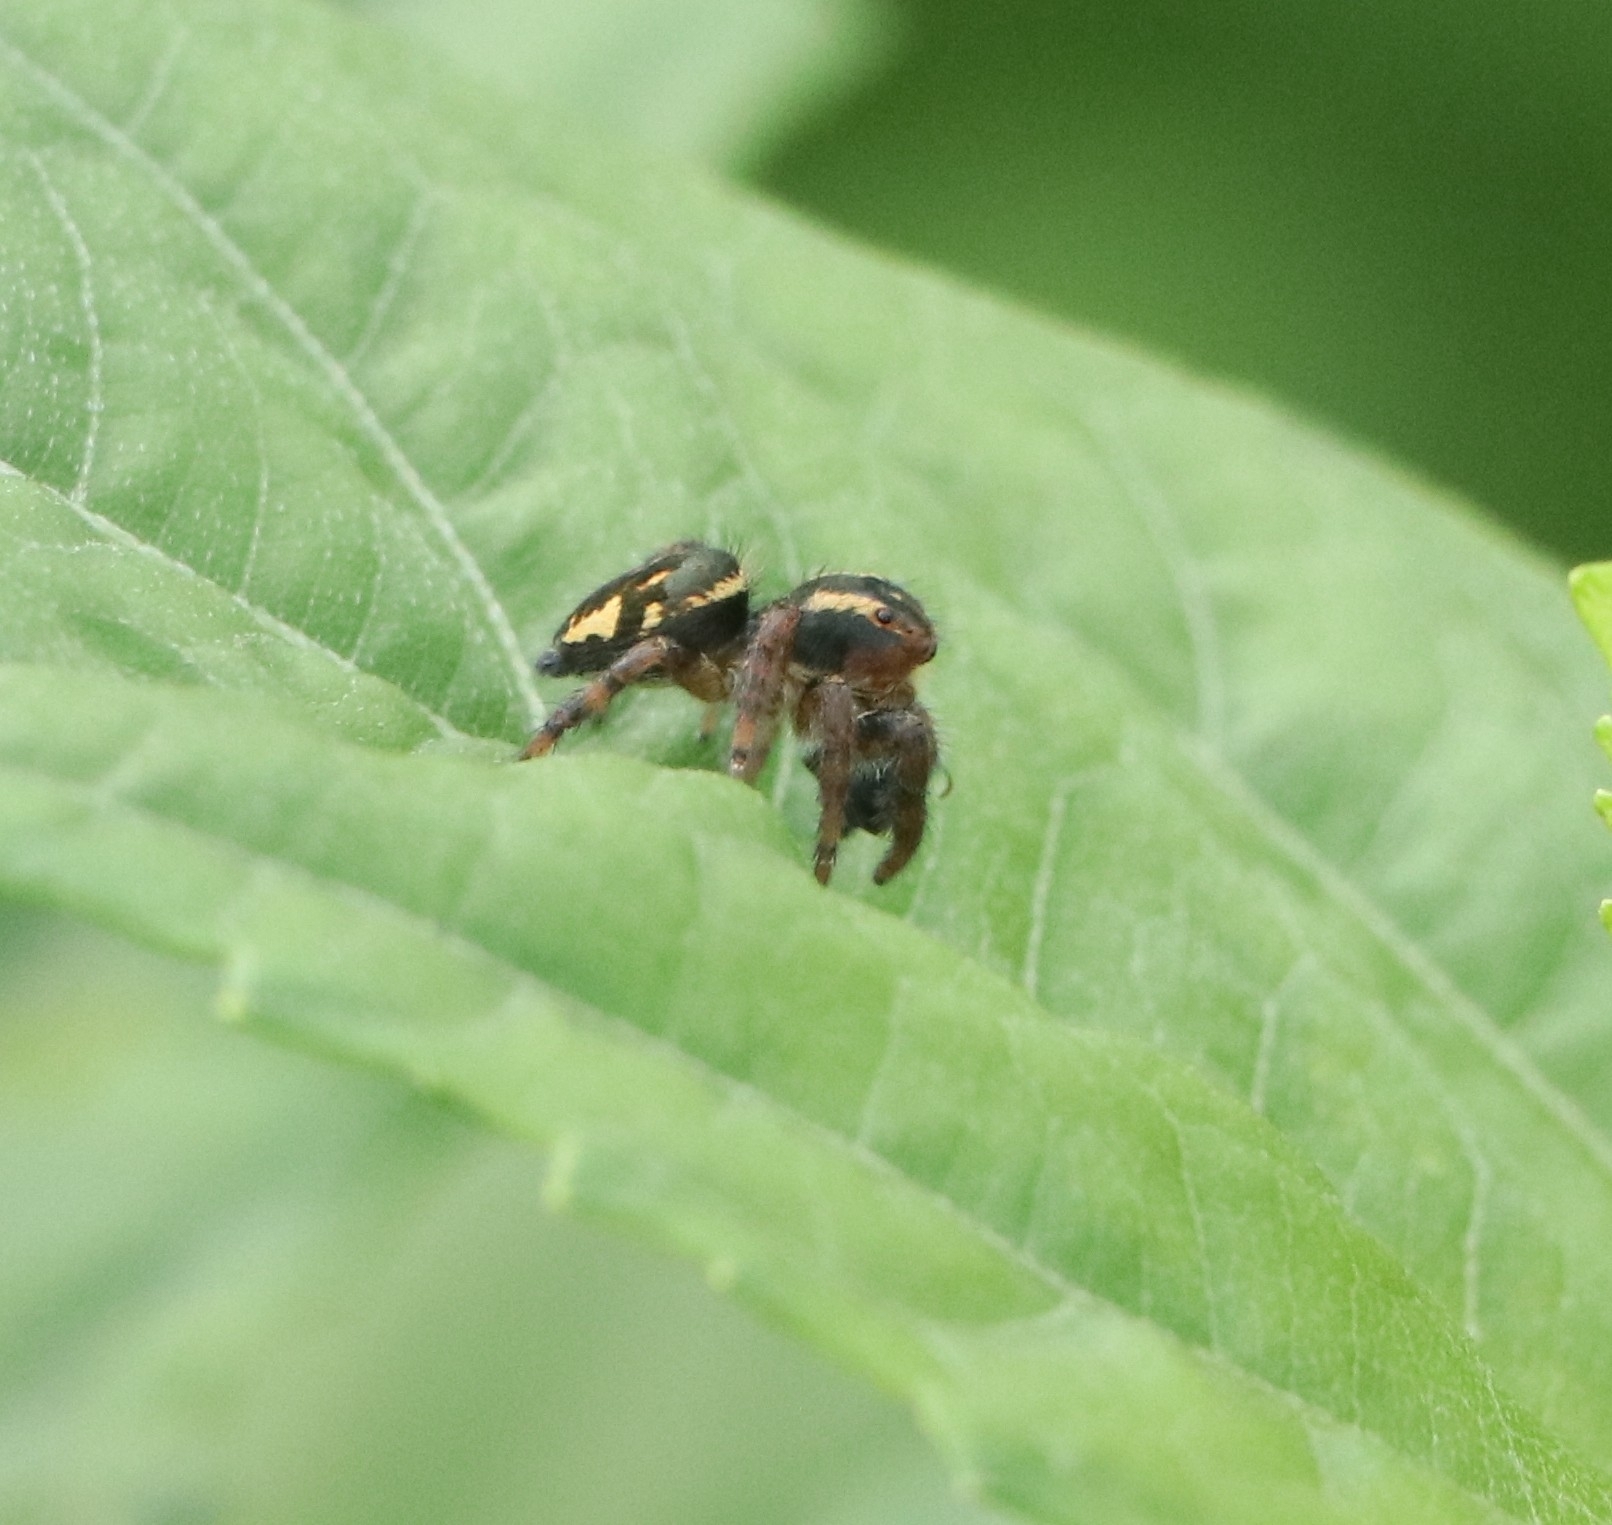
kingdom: Animalia
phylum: Arthropoda
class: Arachnida
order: Araneae
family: Salticidae
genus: Carrhotus
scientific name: Carrhotus viduus
